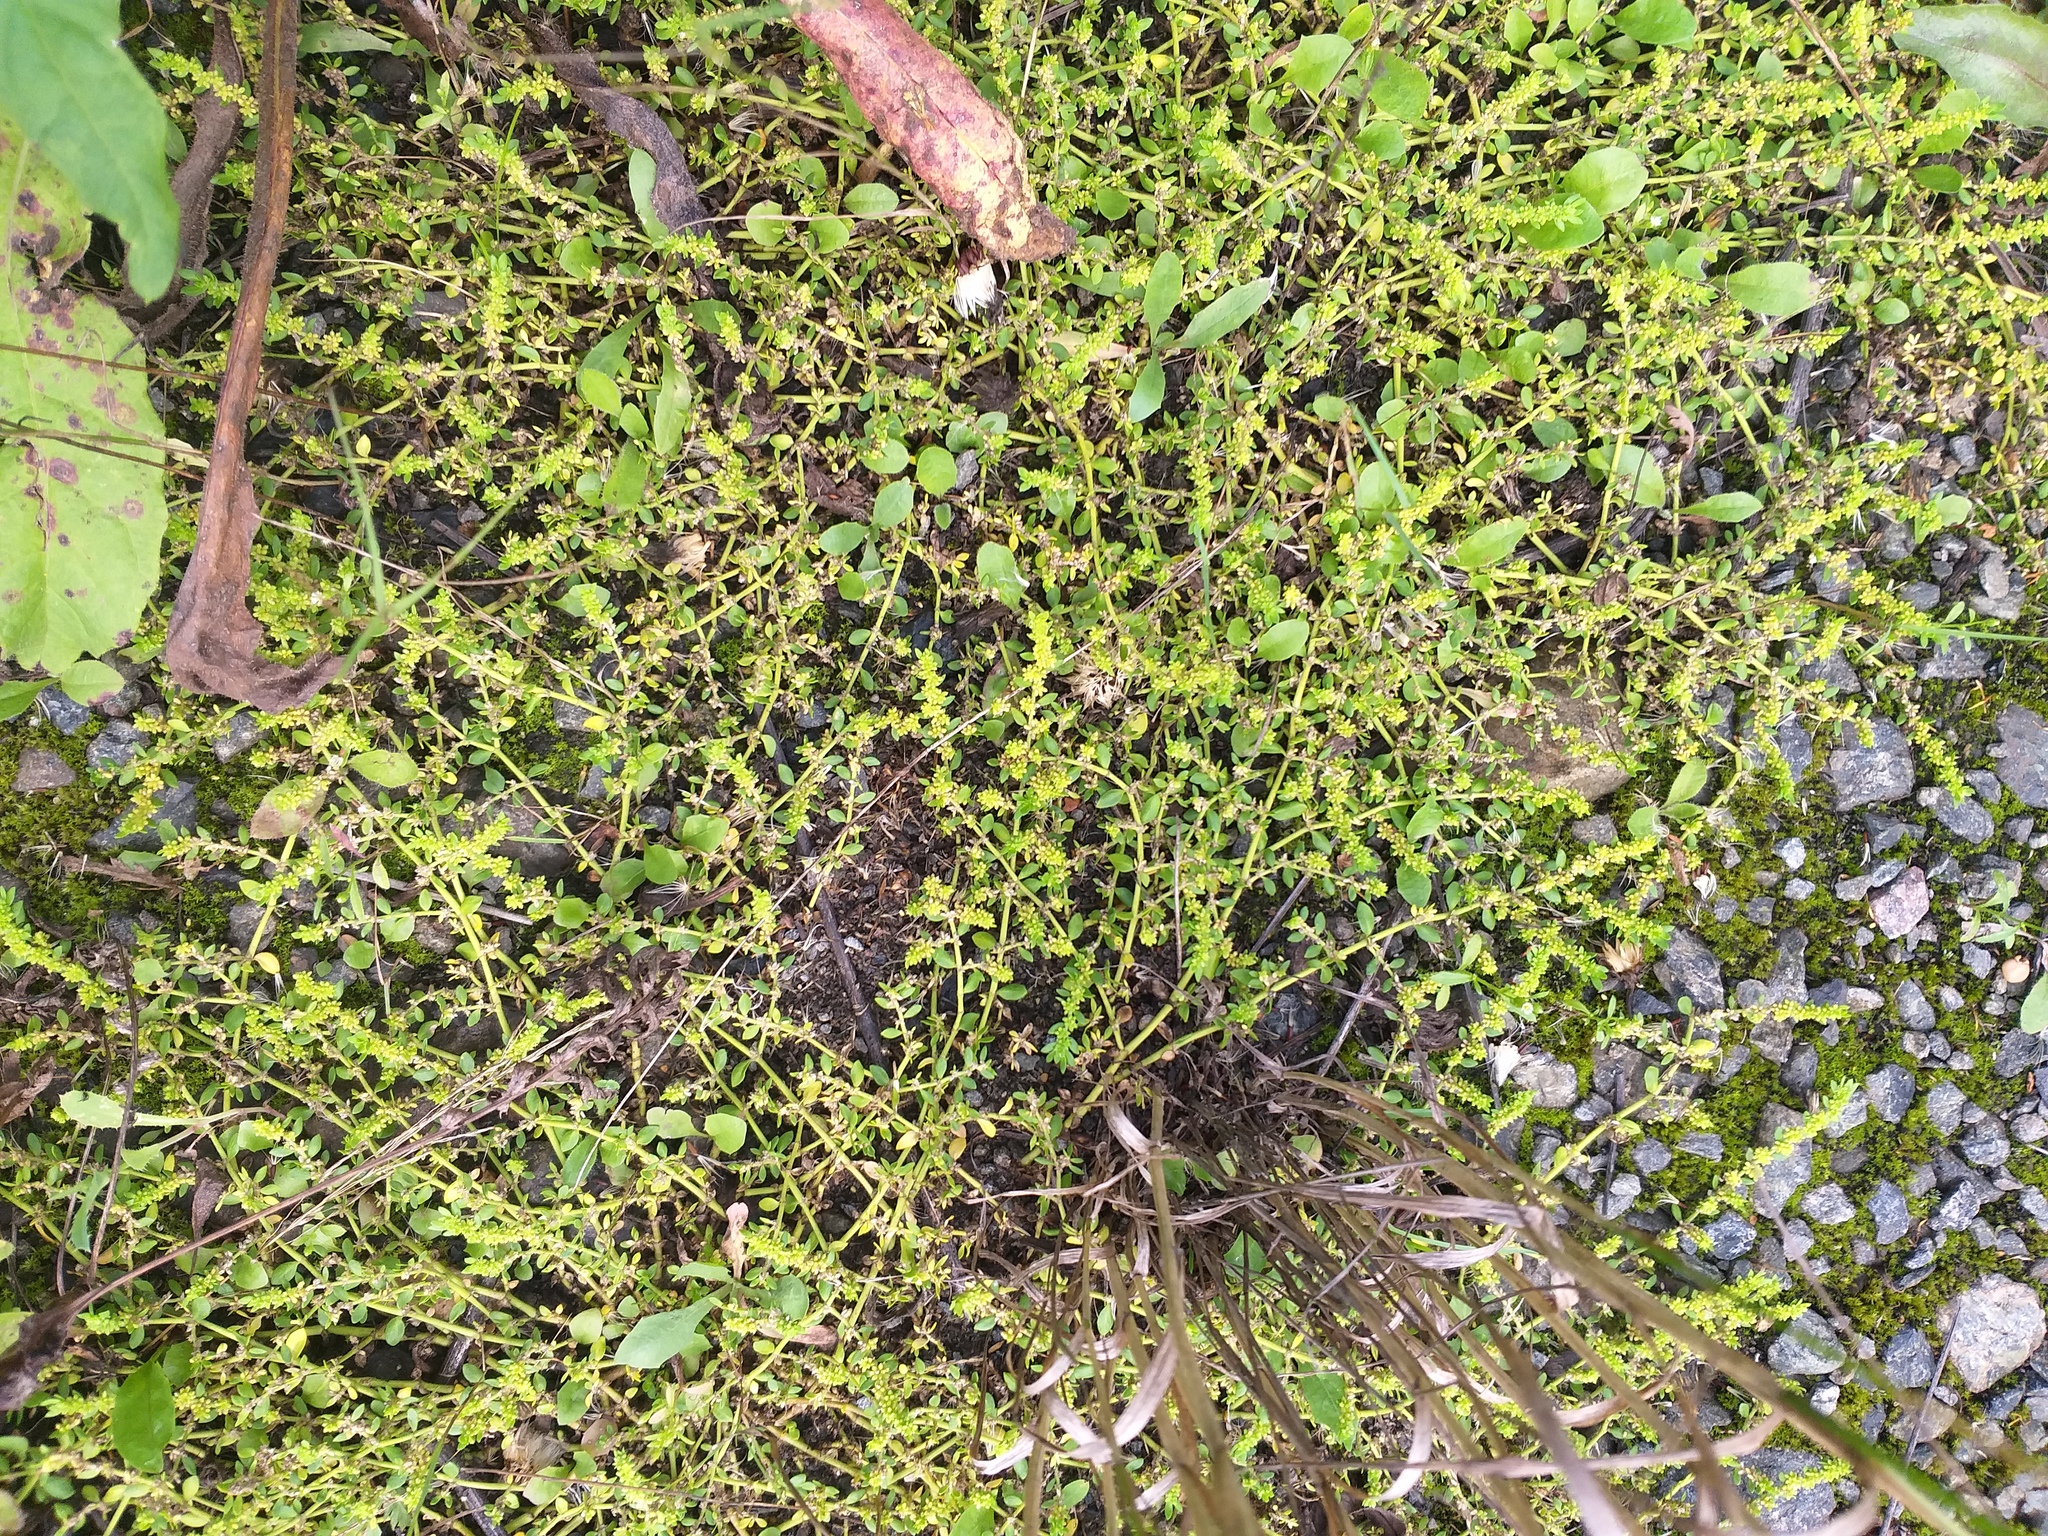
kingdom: Plantae
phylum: Tracheophyta
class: Magnoliopsida
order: Caryophyllales
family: Caryophyllaceae
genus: Herniaria
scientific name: Herniaria glabra
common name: Smooth rupturewort
